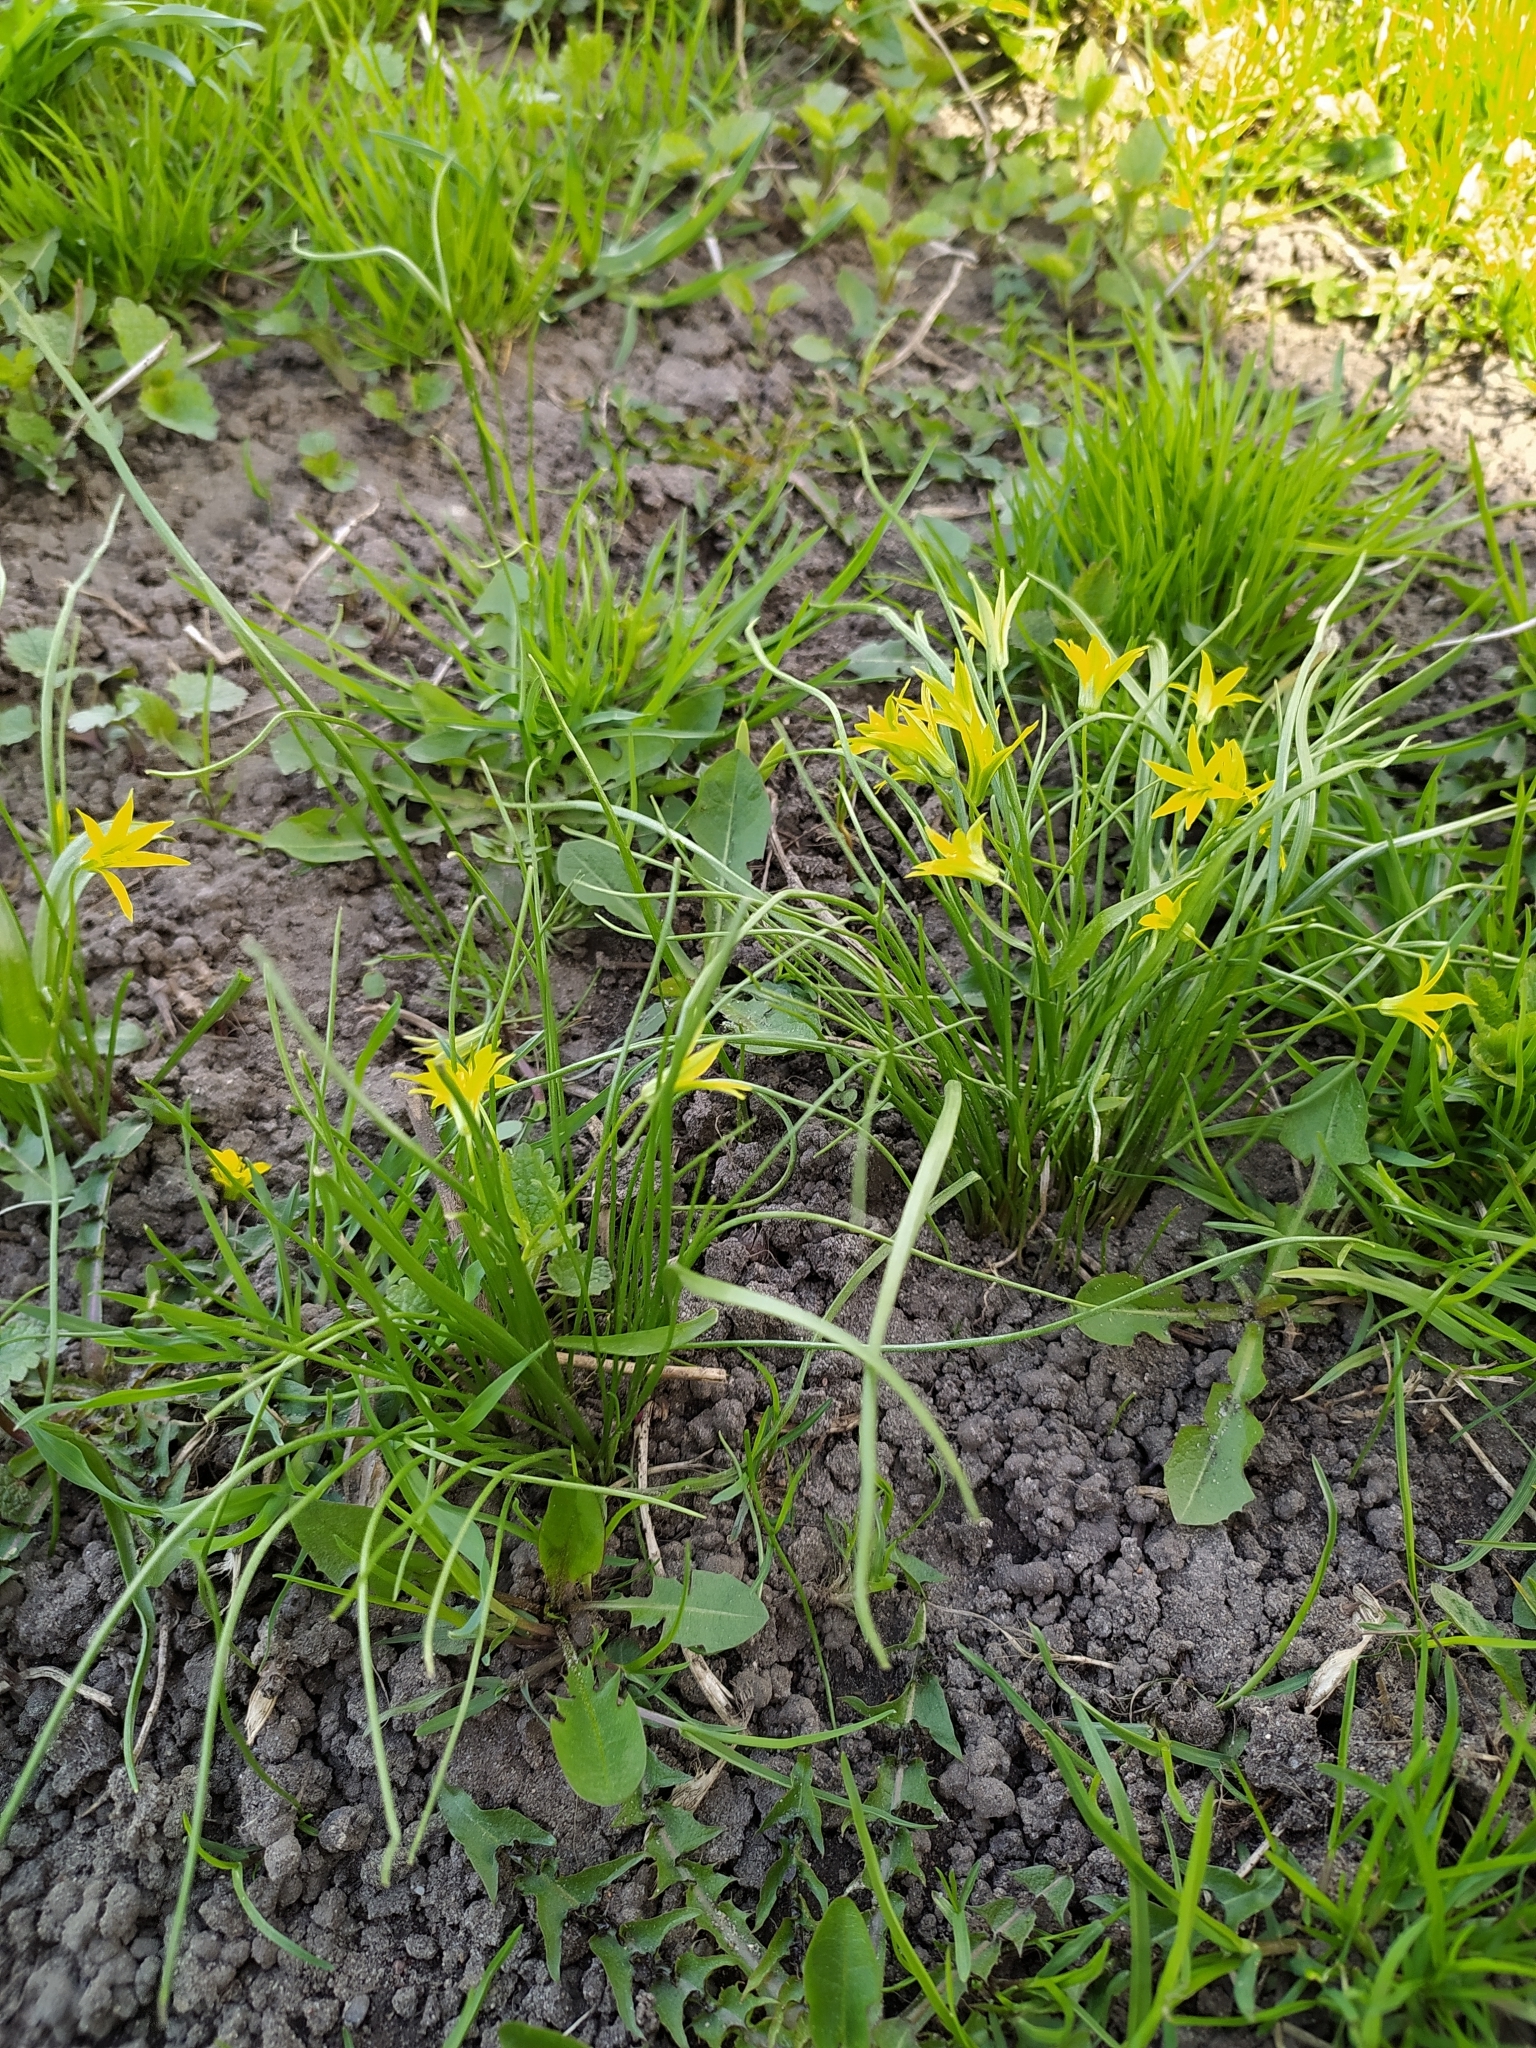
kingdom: Plantae
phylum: Tracheophyta
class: Liliopsida
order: Liliales
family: Liliaceae
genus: Gagea
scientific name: Gagea minima
